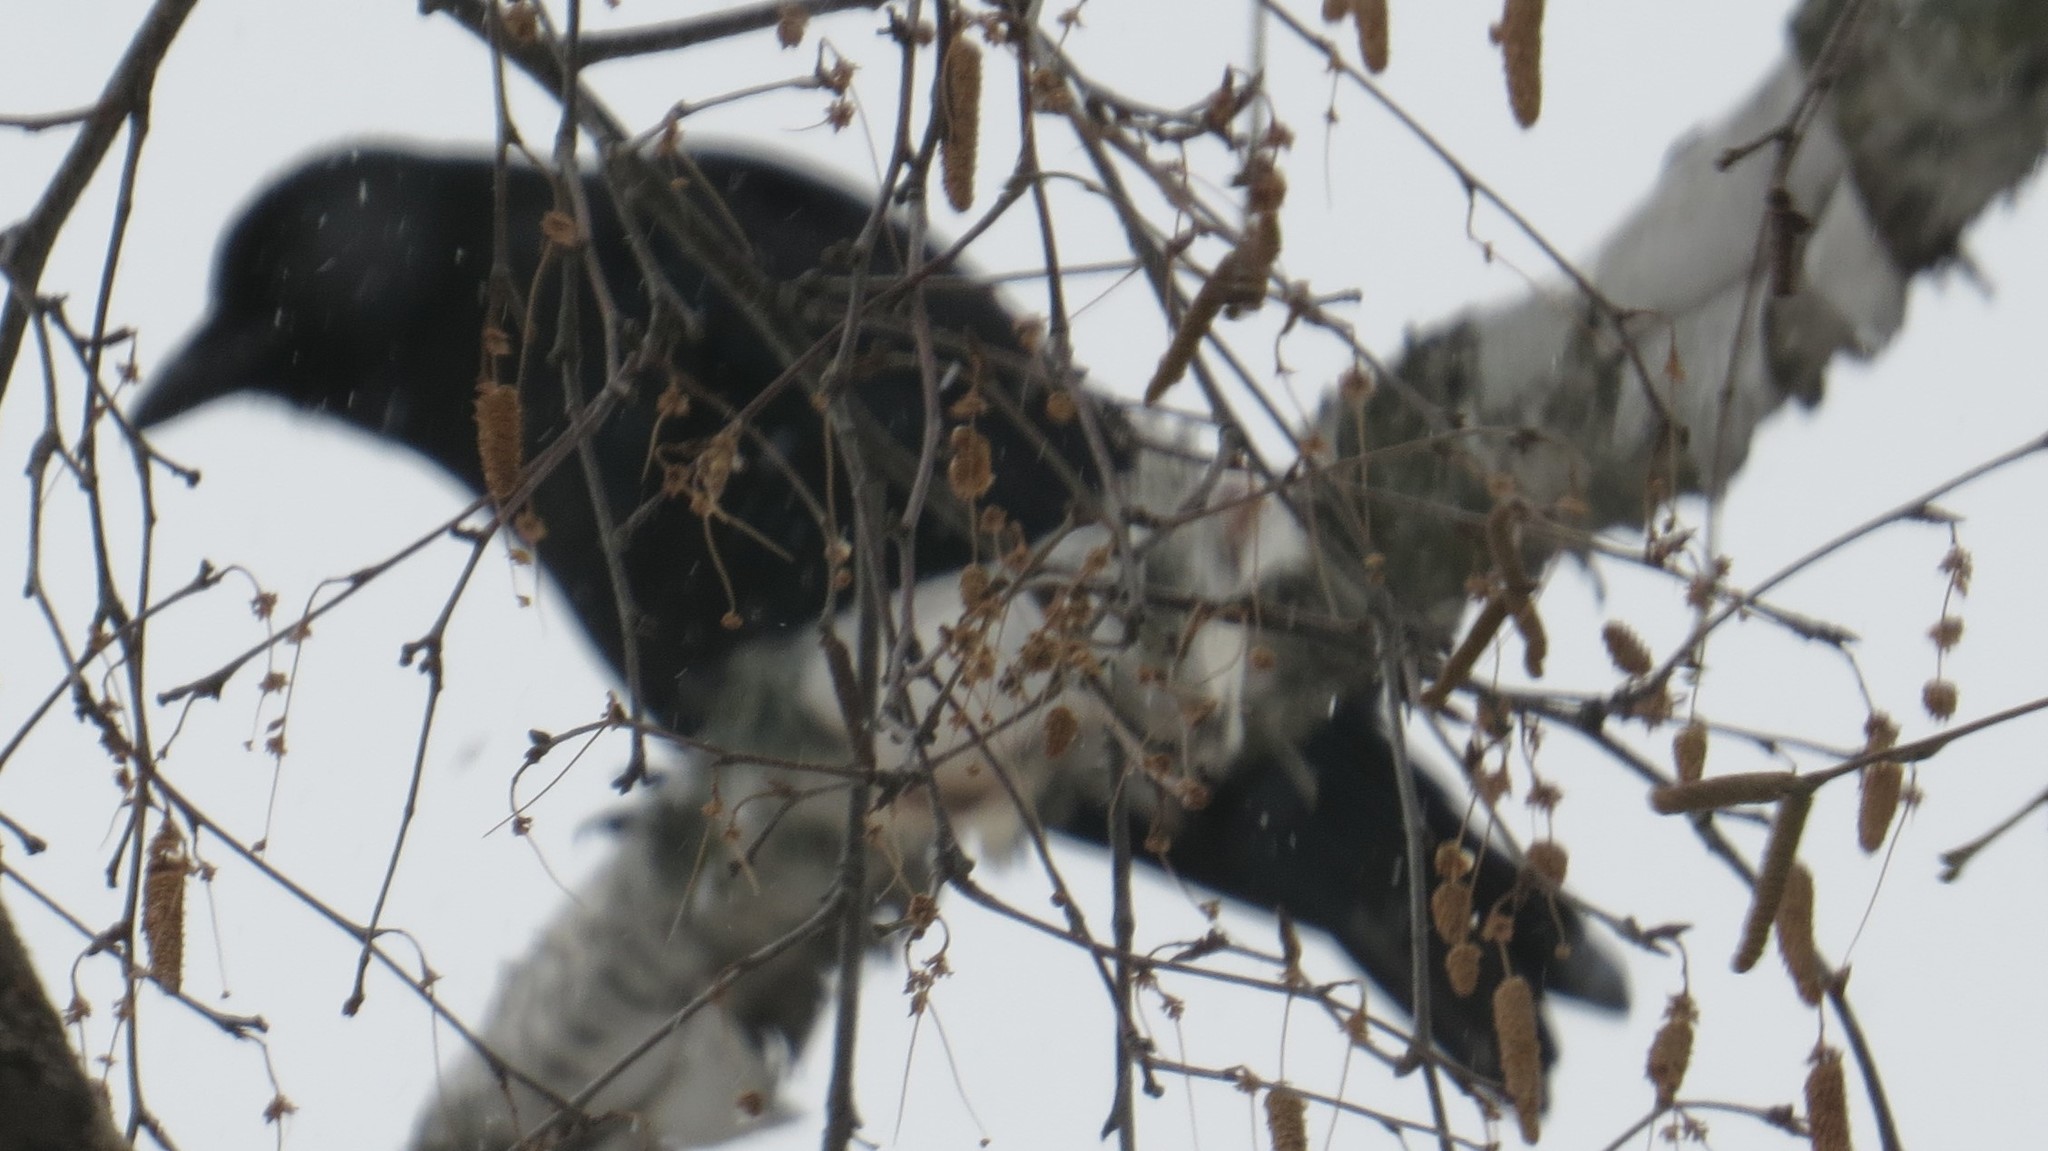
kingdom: Animalia
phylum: Chordata
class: Aves
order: Passeriformes
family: Corvidae
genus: Corvus
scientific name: Corvus brachyrhynchos
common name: American crow
